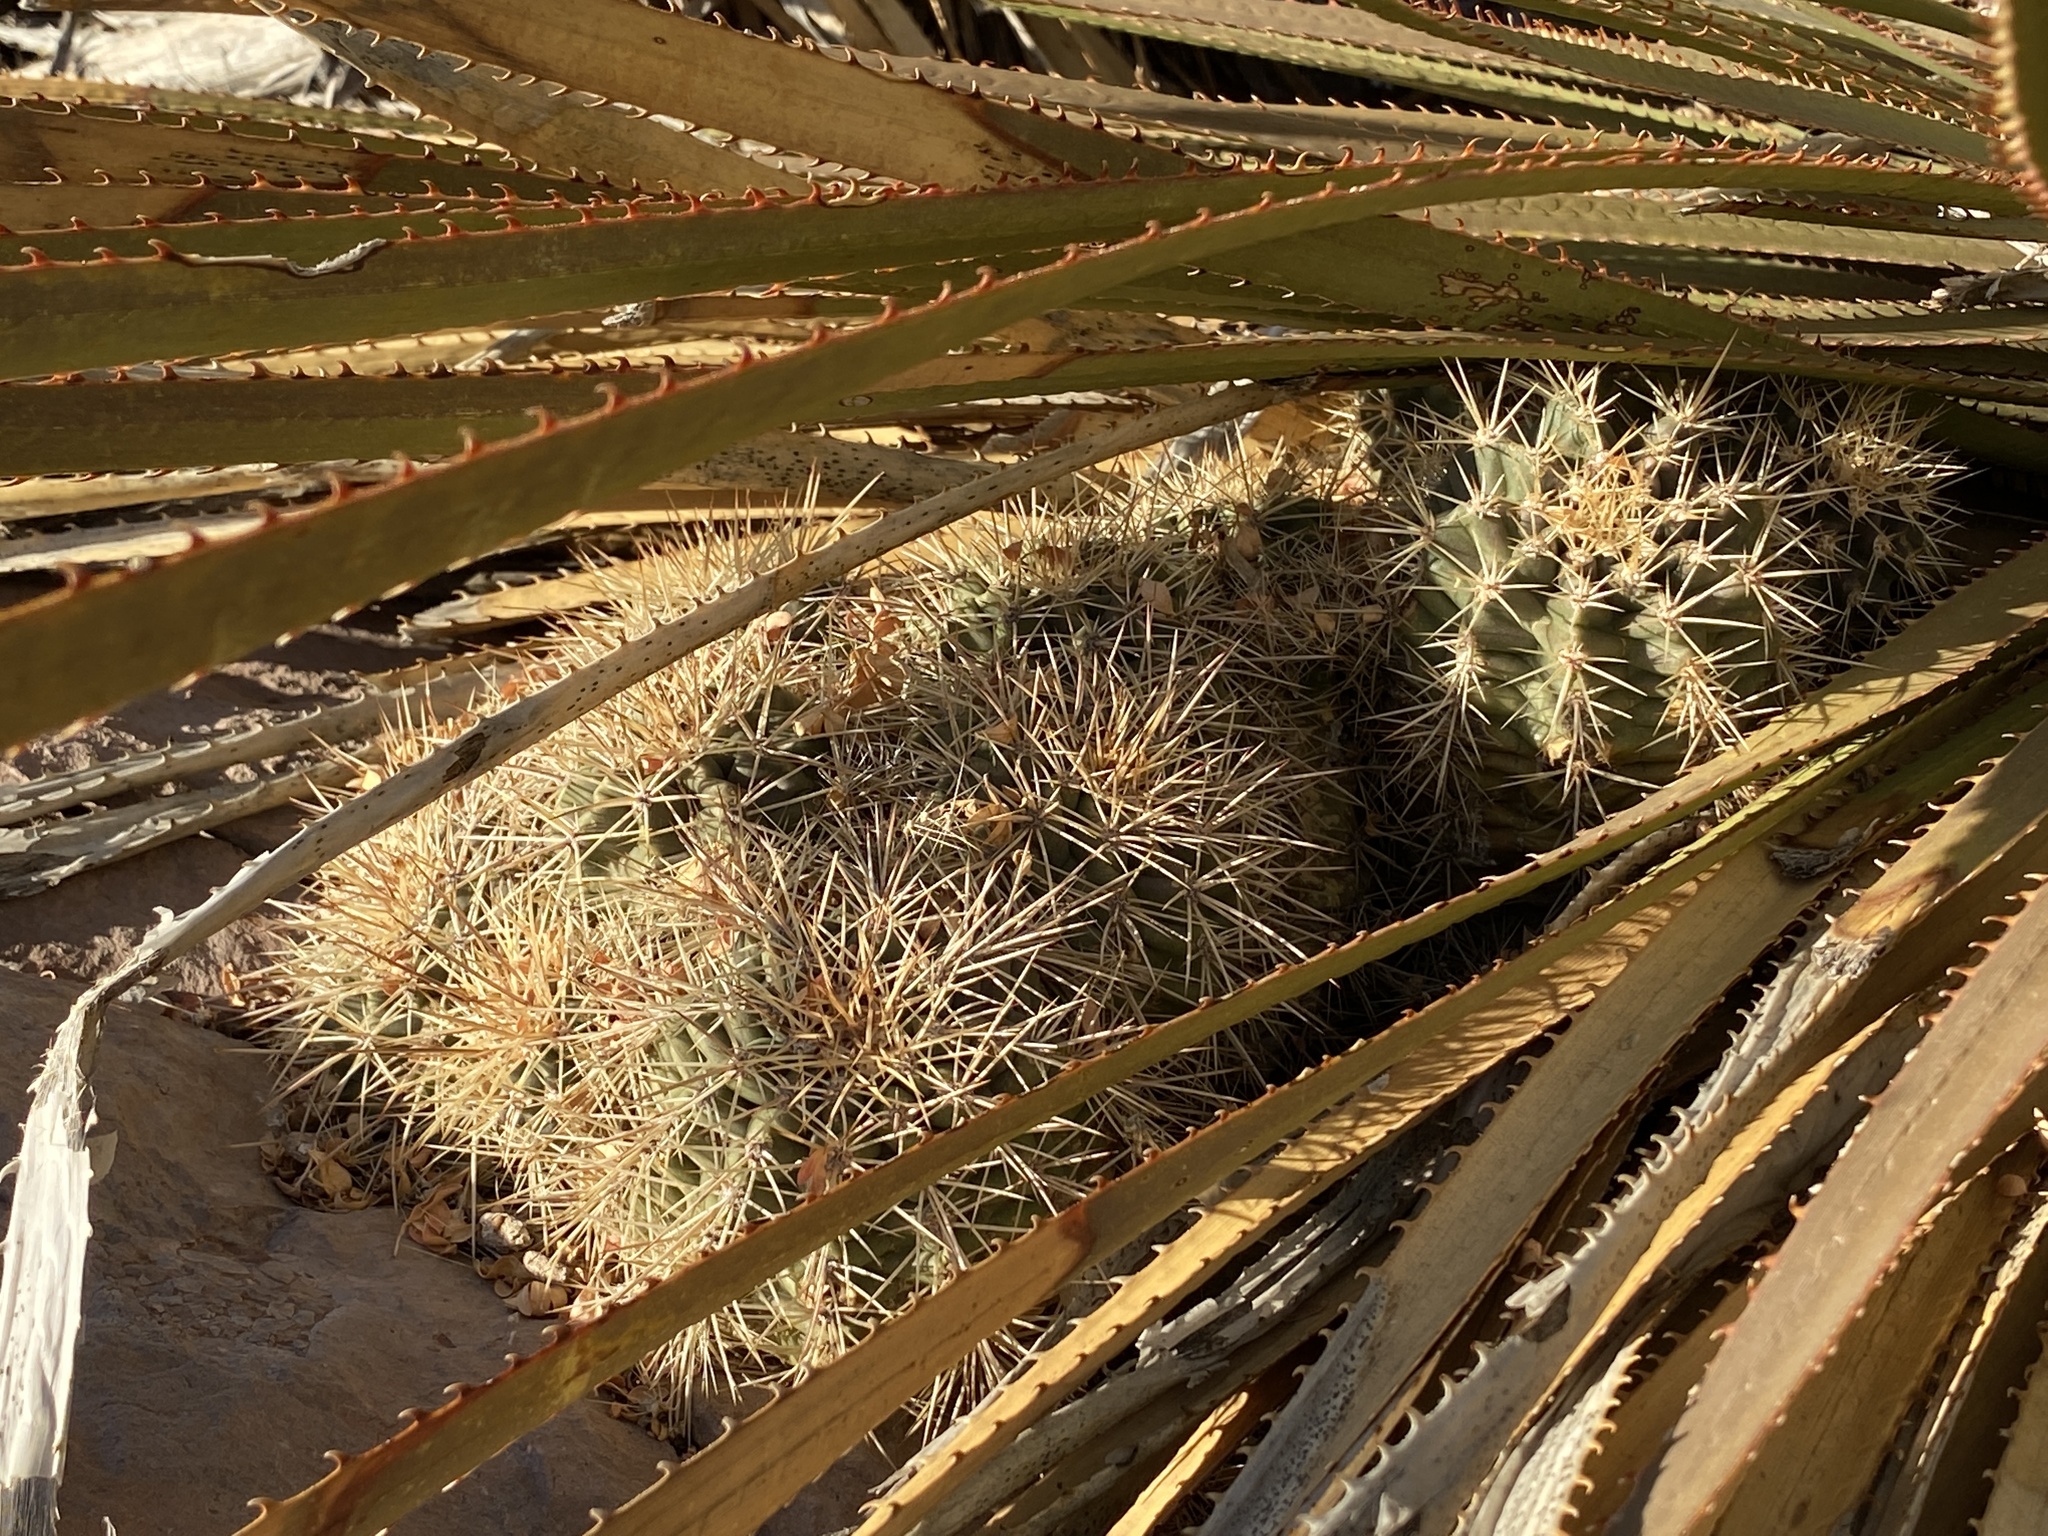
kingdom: Plantae
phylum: Tracheophyta
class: Magnoliopsida
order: Caryophyllales
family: Cactaceae
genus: Echinocereus
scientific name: Echinocereus coccineus
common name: Scarlet hedgehog cactus
